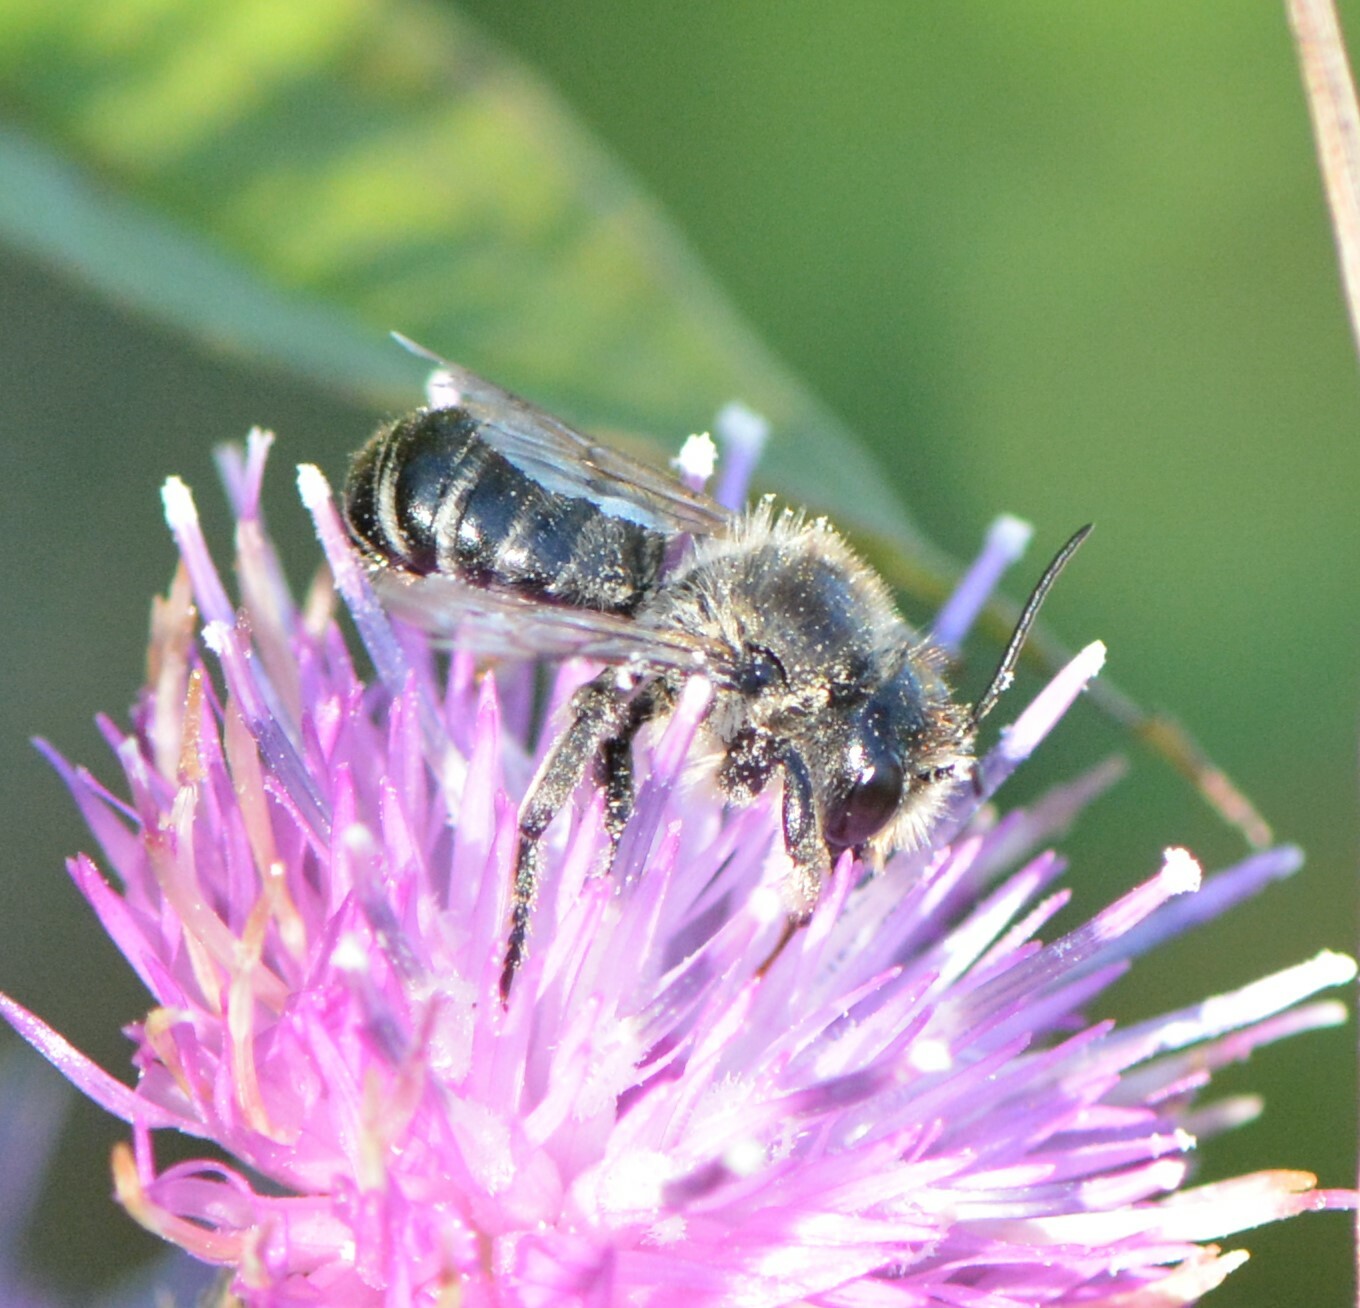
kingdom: Animalia
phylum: Arthropoda
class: Insecta
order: Hymenoptera
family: Megachilidae
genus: Megachile
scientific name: Megachile inermis
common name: Unarmed leafcutter bee
